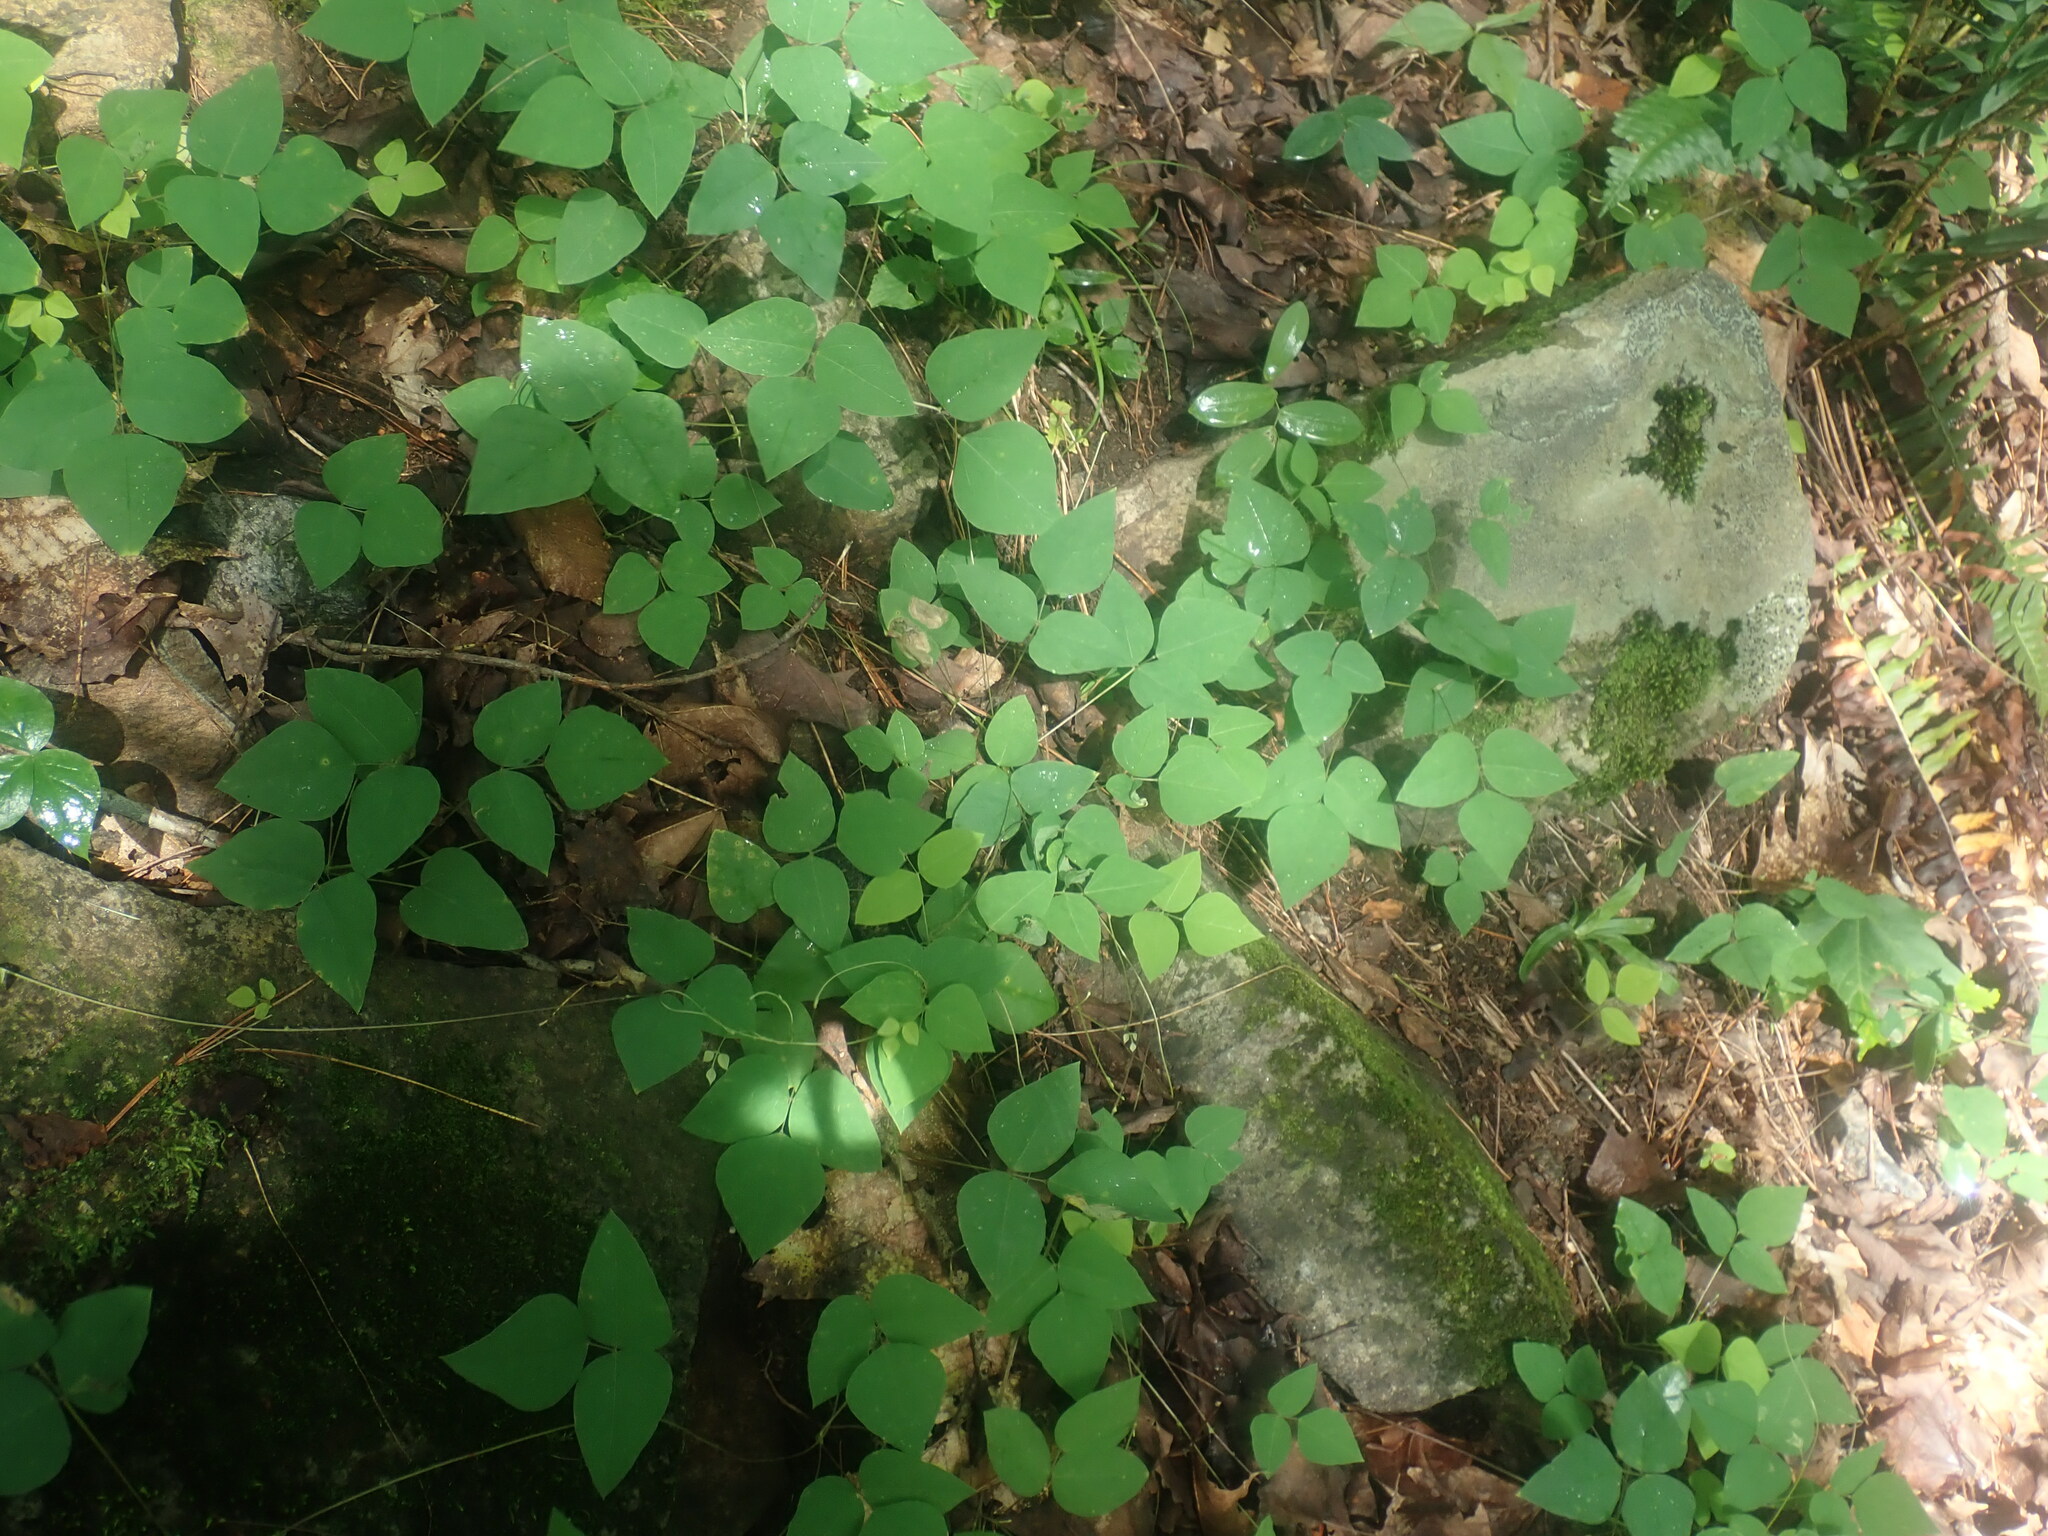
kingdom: Plantae
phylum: Tracheophyta
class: Magnoliopsida
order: Fabales
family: Fabaceae
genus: Amphicarpaea
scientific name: Amphicarpaea bracteata
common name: American hog peanut
